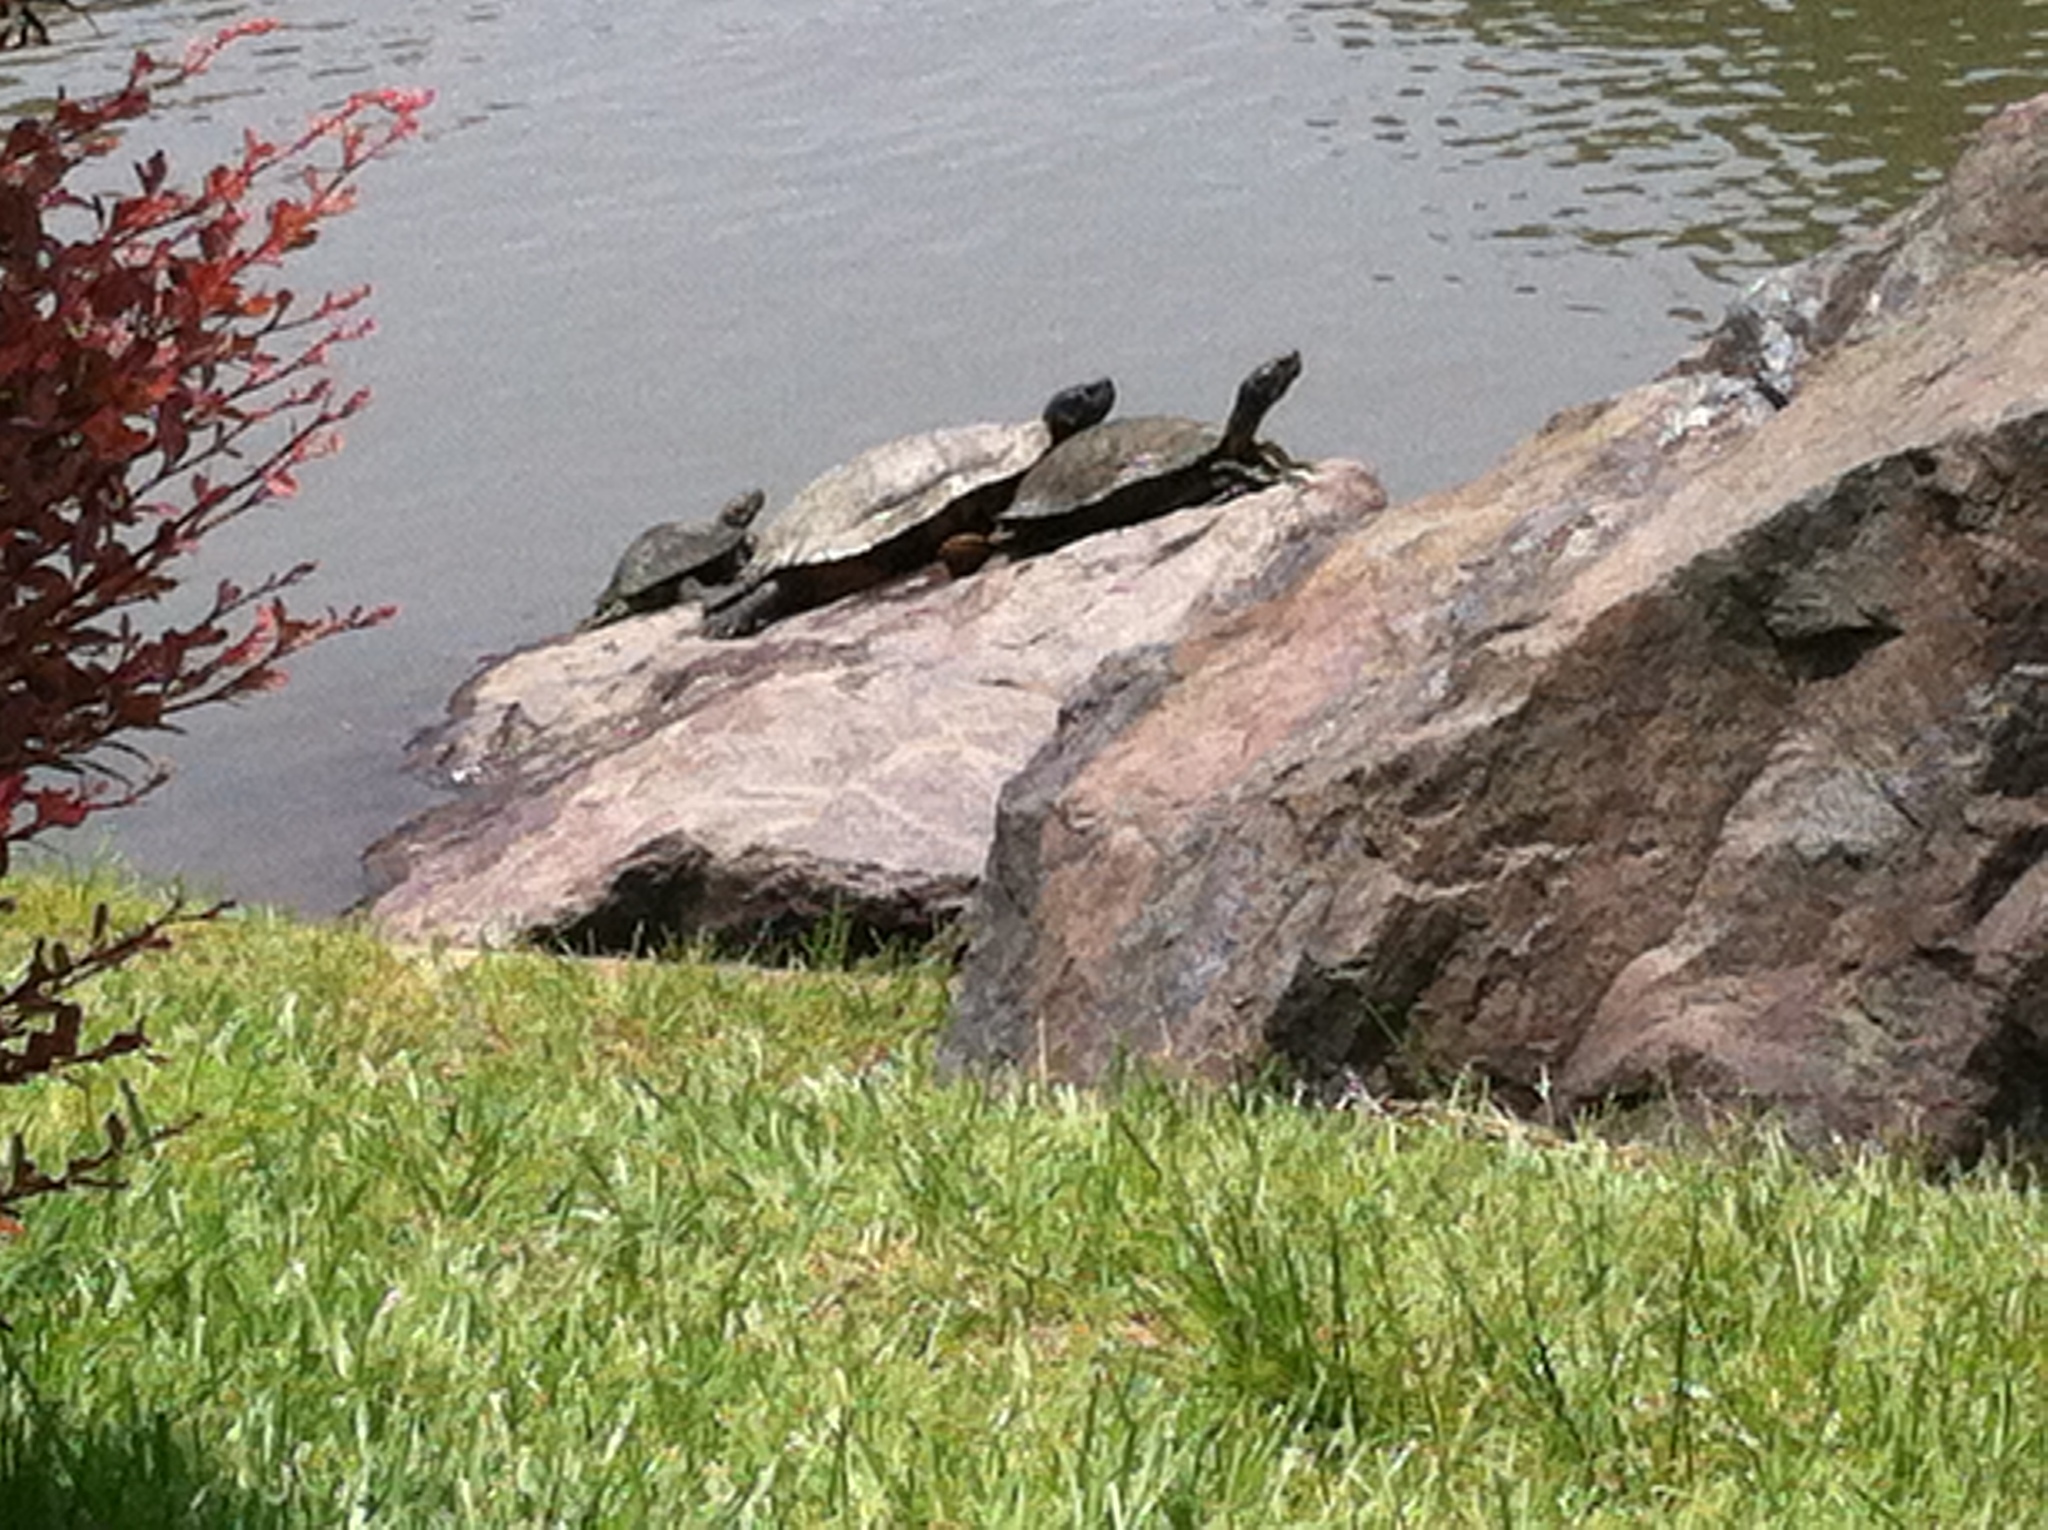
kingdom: Animalia
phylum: Chordata
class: Testudines
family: Emydidae
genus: Trachemys
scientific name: Trachemys scripta
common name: Slider
